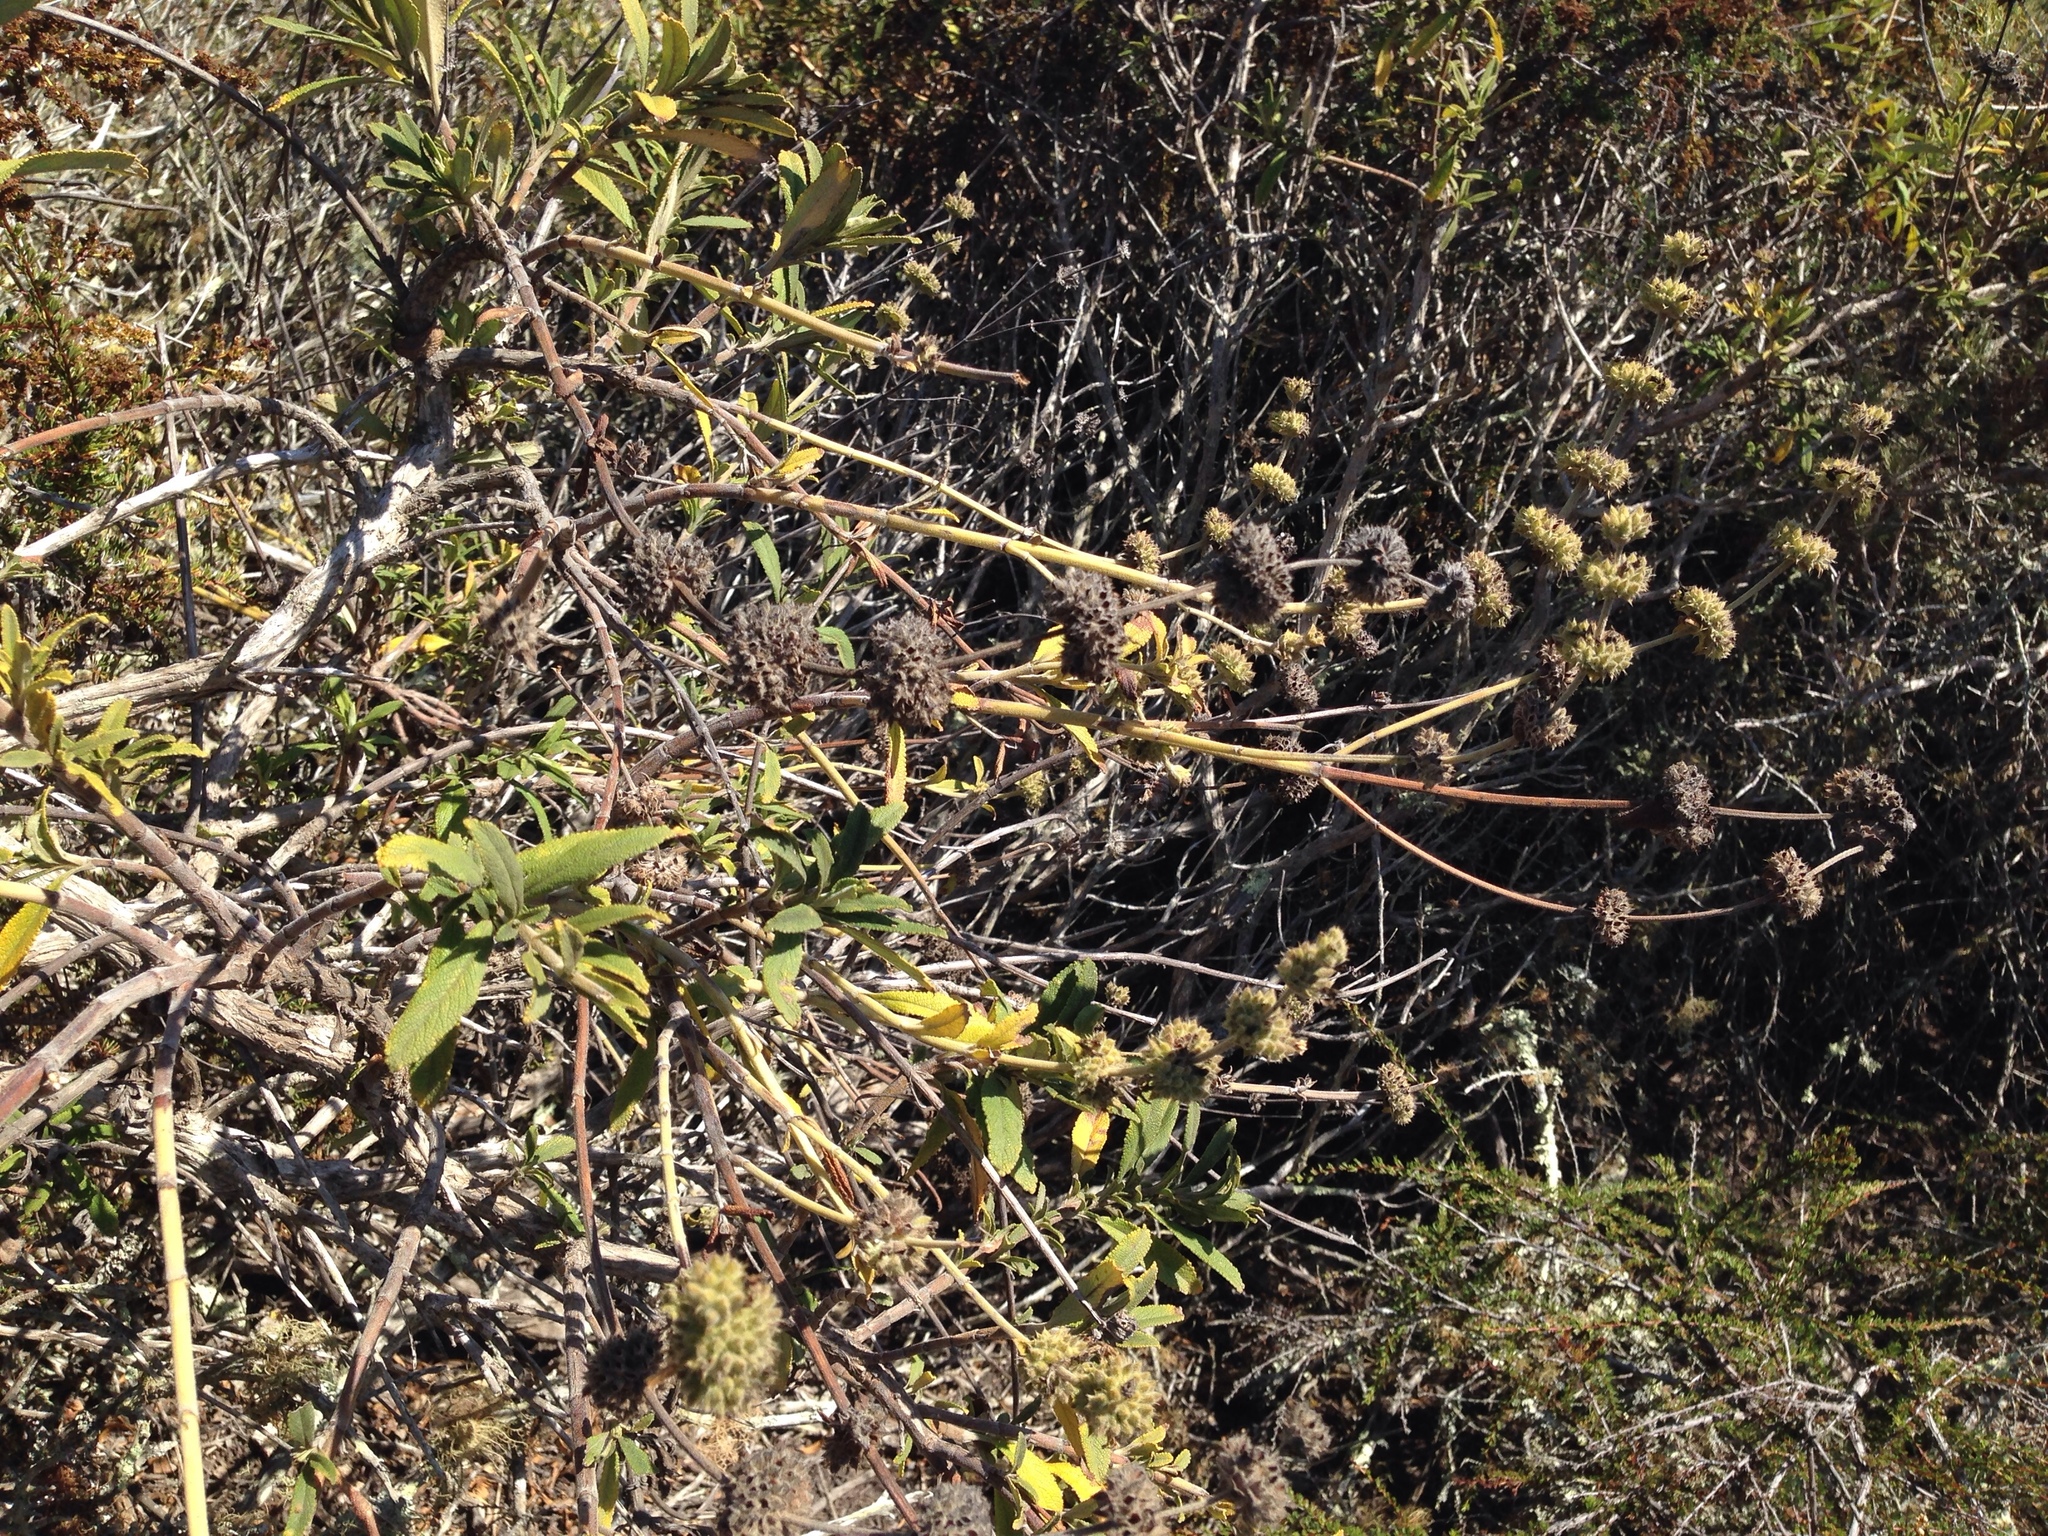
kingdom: Plantae
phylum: Tracheophyta
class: Magnoliopsida
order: Lamiales
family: Lamiaceae
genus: Salvia
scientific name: Salvia mellifera
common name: Black sage
